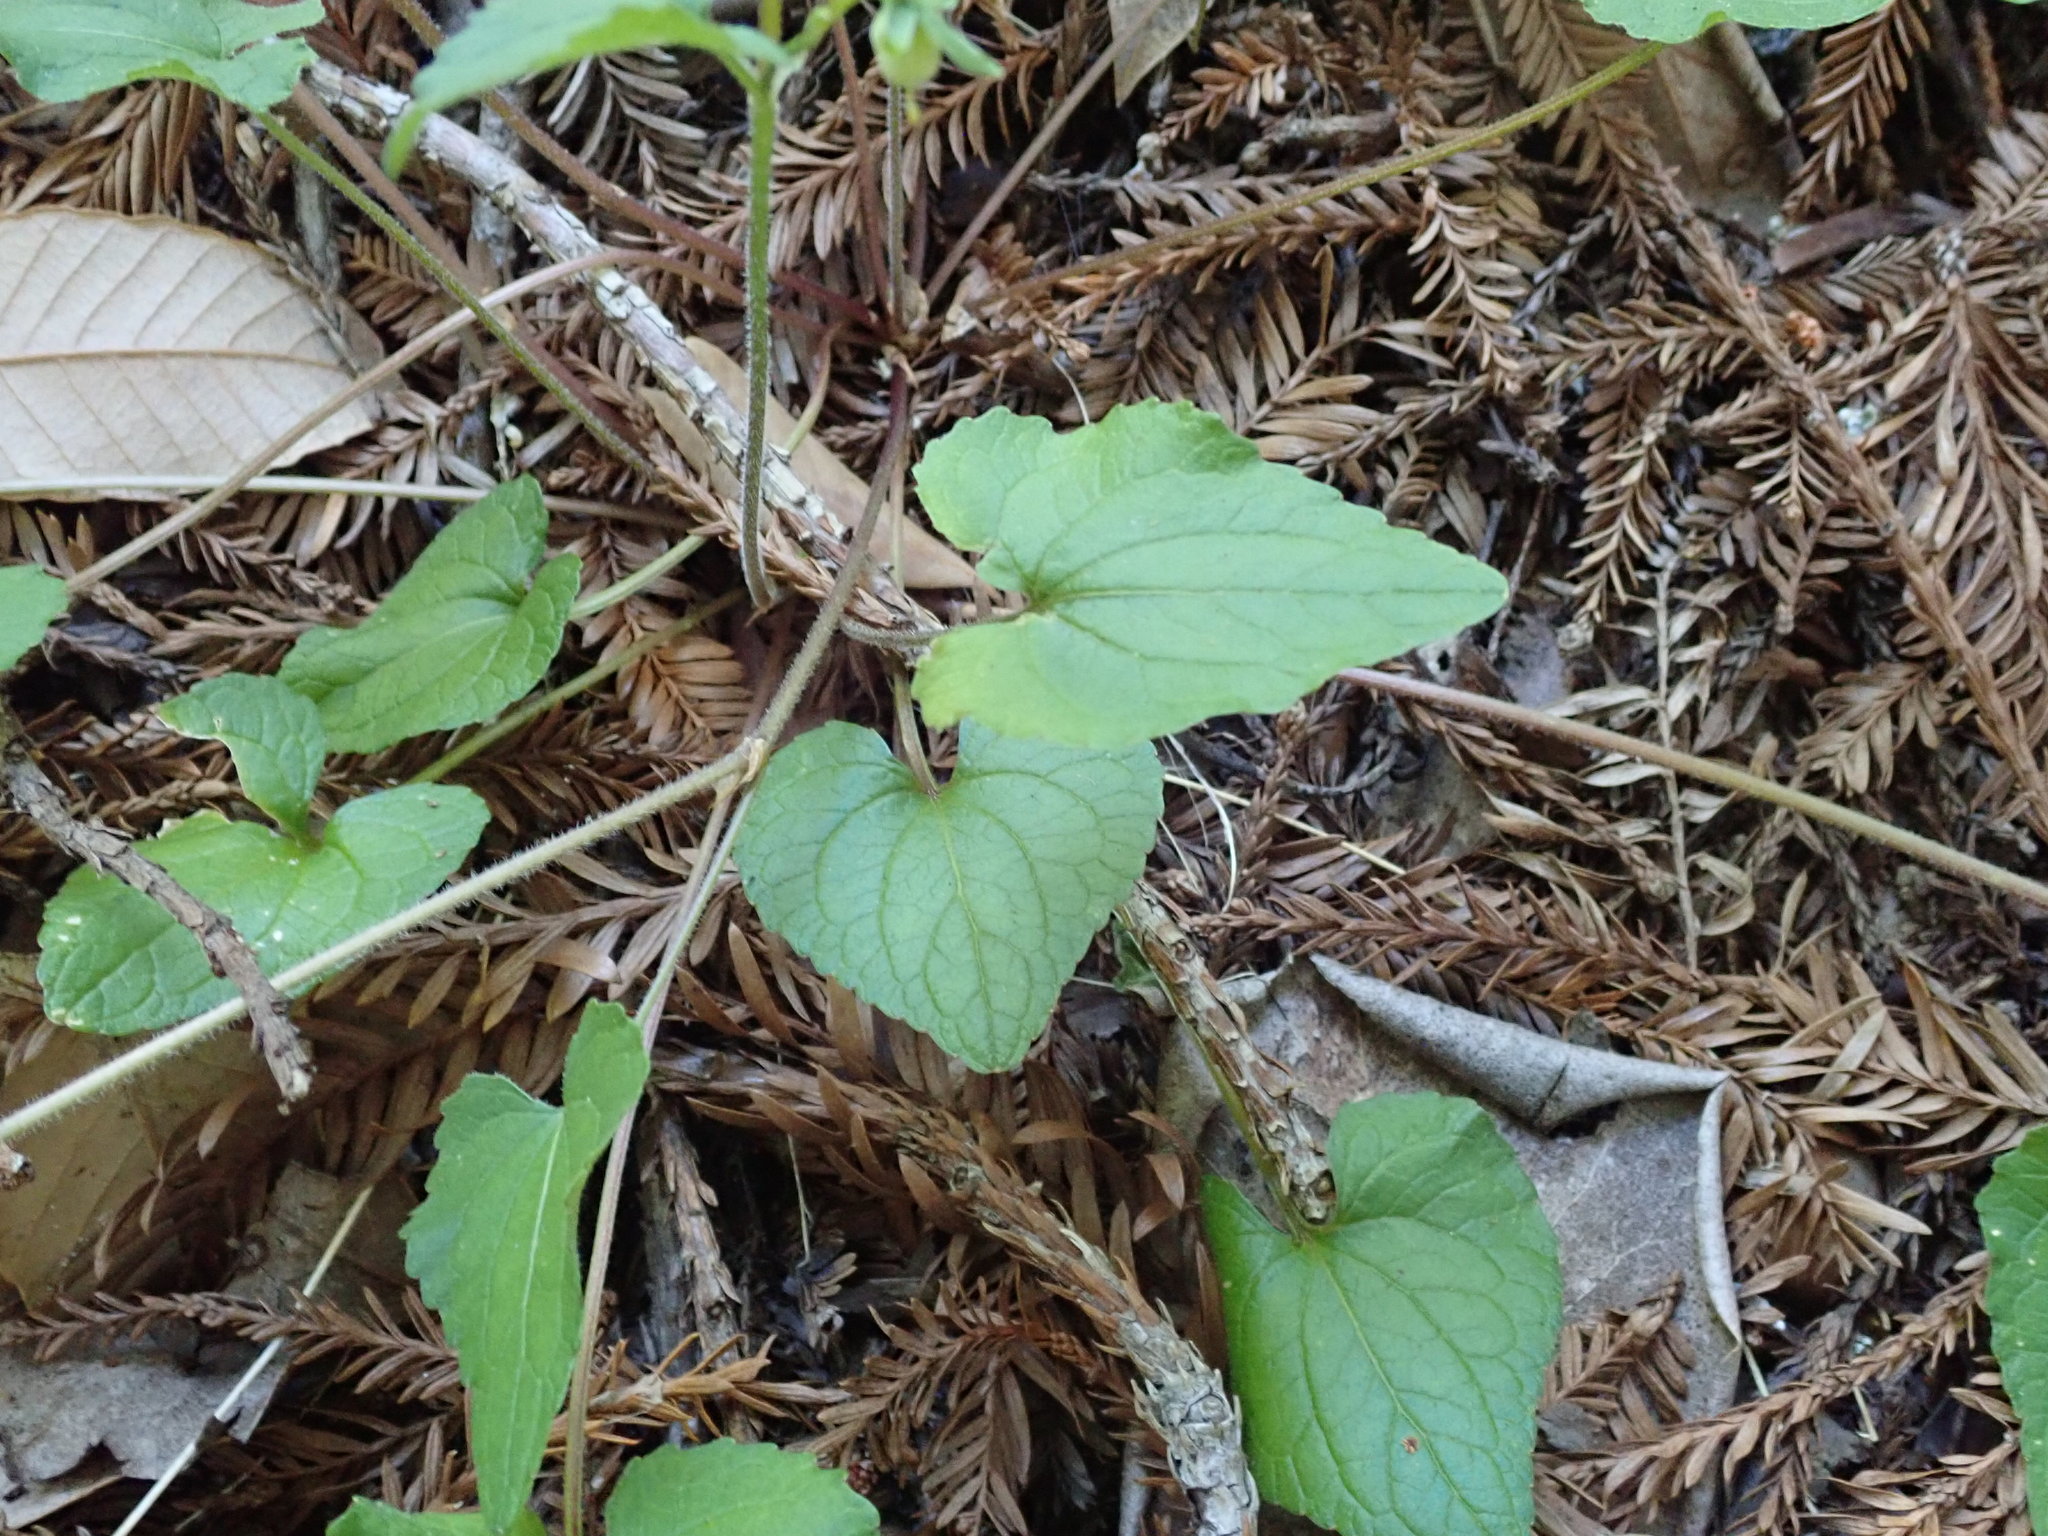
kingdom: Plantae
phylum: Tracheophyta
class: Magnoliopsida
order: Malpighiales
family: Violaceae
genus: Viola
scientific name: Viola ocellata
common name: Western heart's ease
